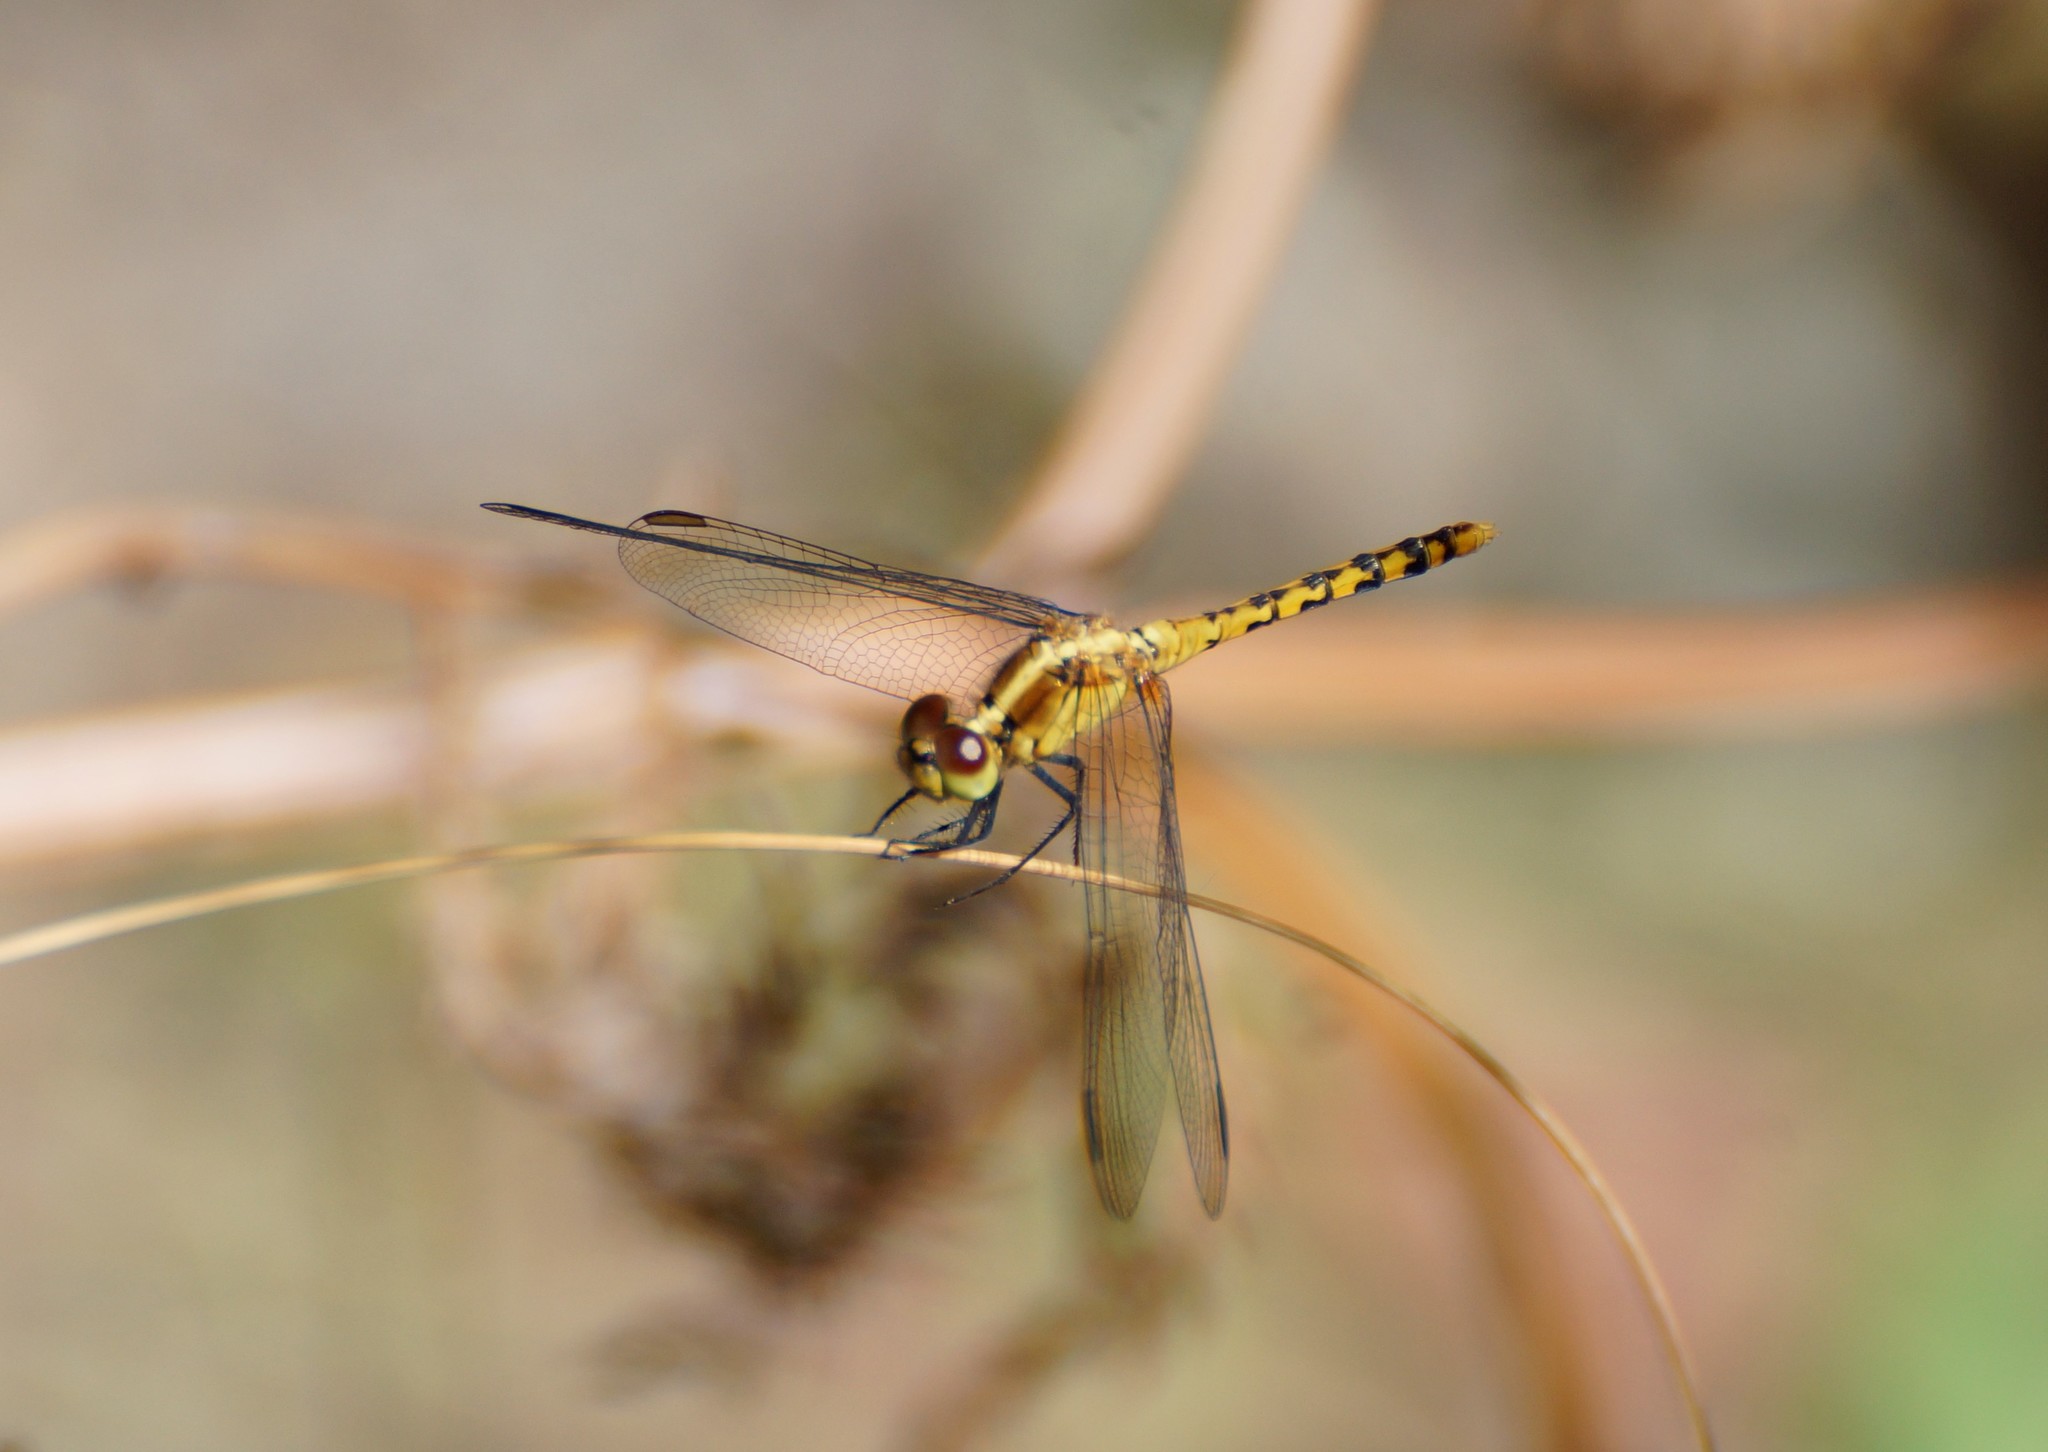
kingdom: Animalia
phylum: Arthropoda
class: Insecta
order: Odonata
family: Libellulidae
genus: Diplacodes
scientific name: Diplacodes melanopsis
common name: Black-faced percher
